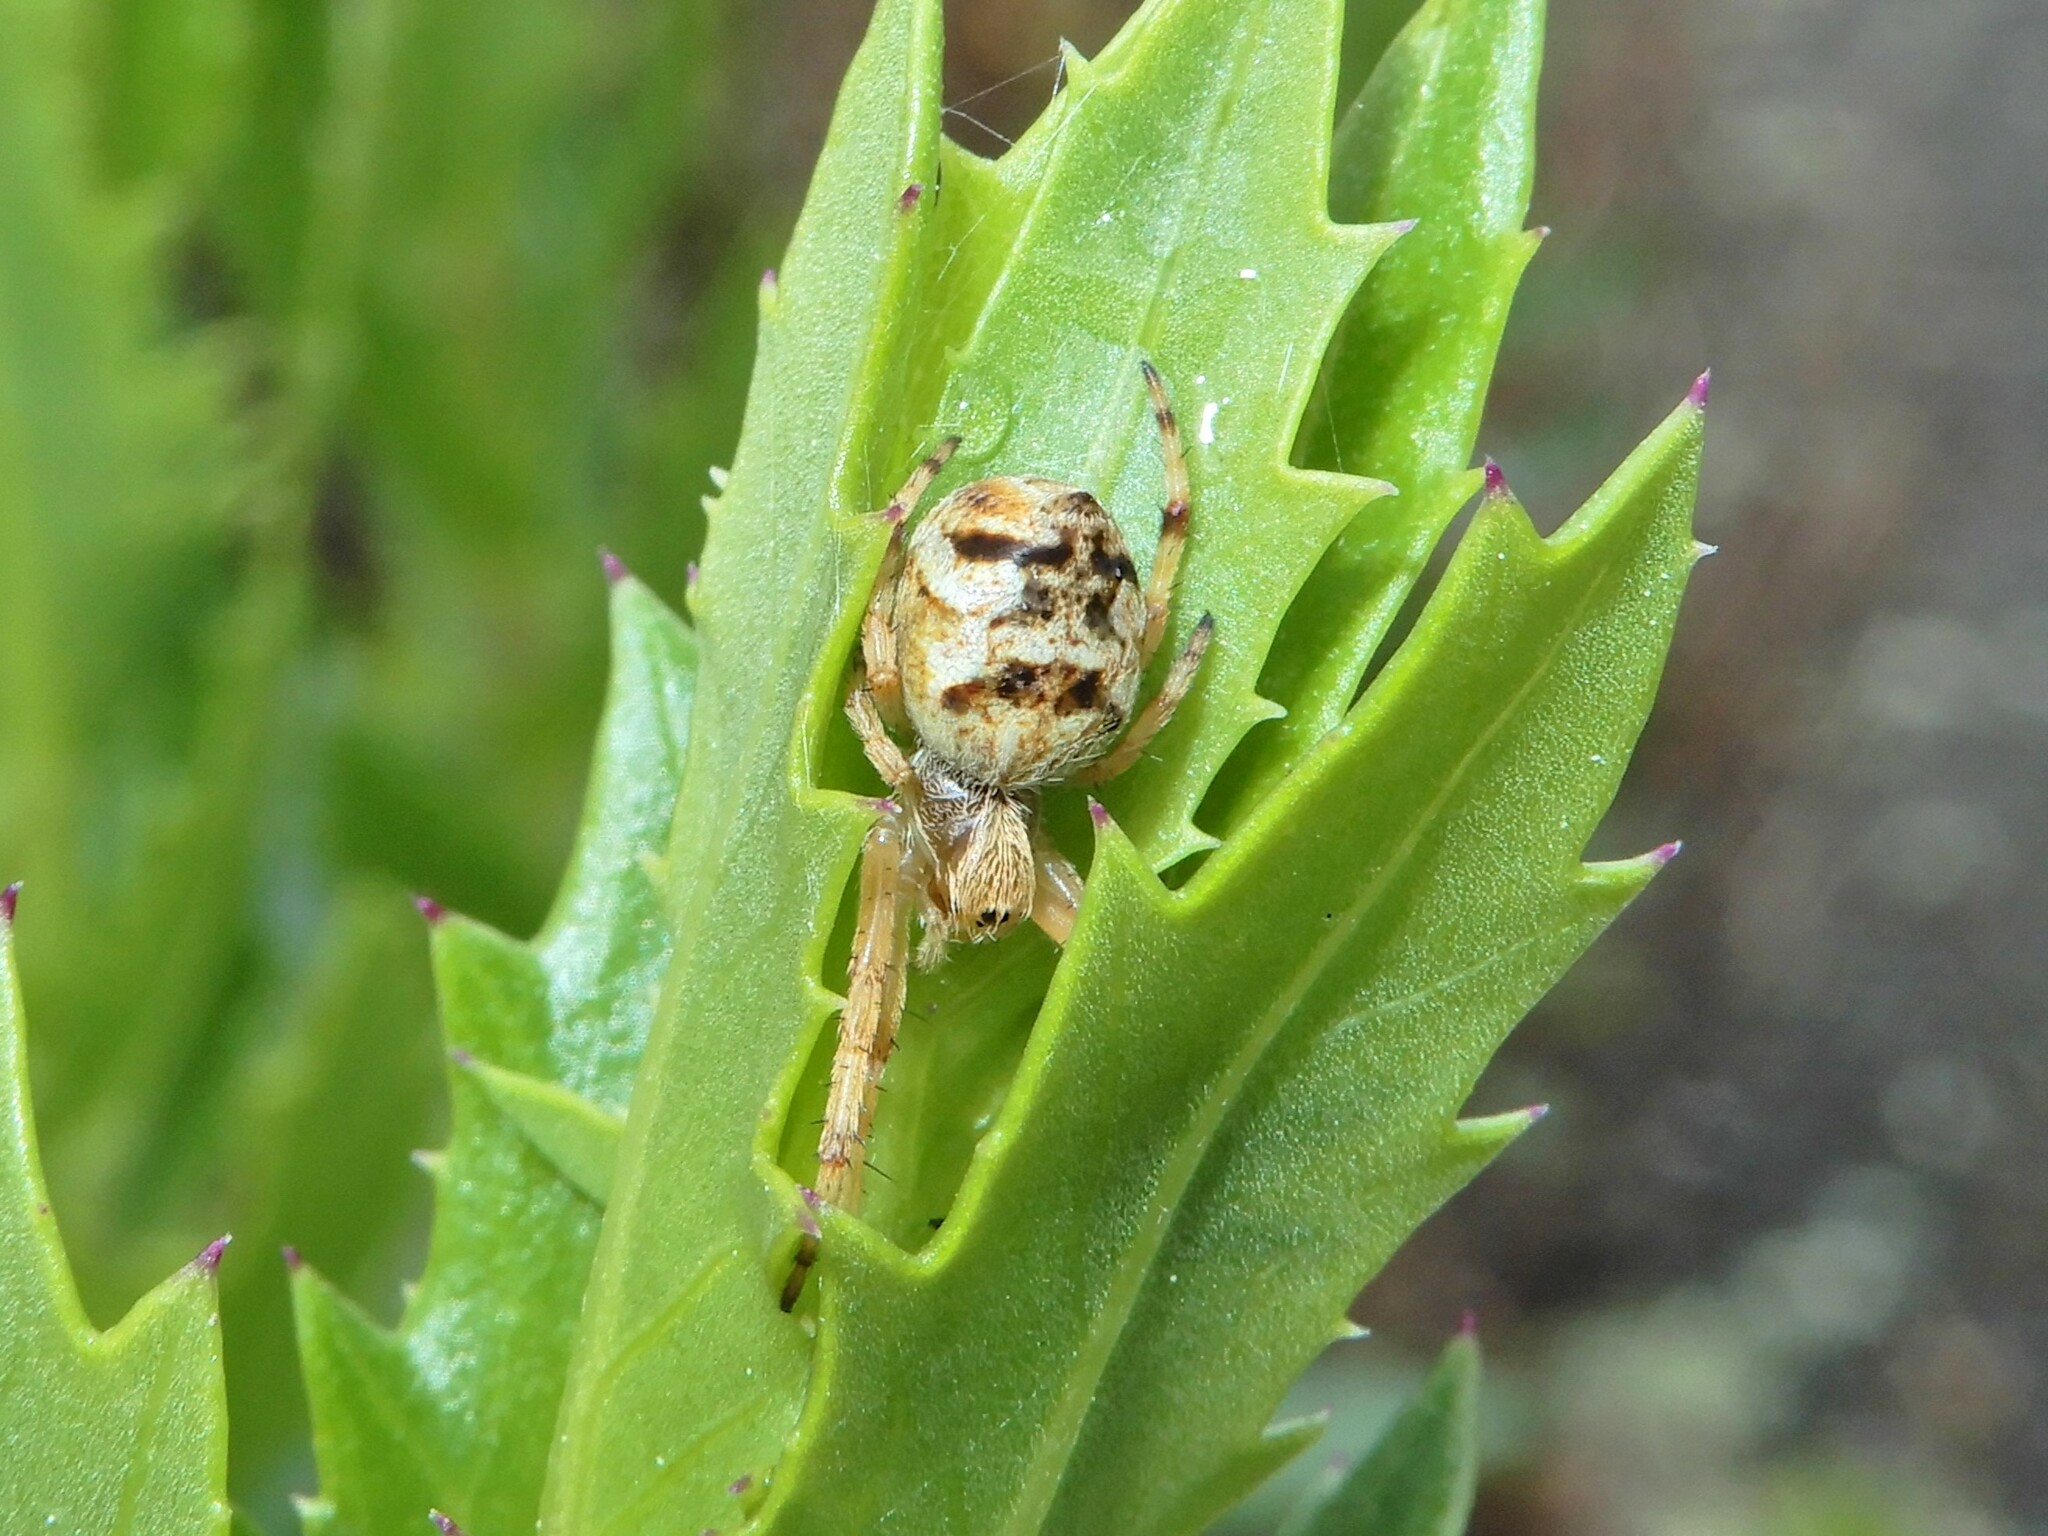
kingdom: Animalia
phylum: Arthropoda
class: Arachnida
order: Araneae
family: Araneidae
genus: Salsa
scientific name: Salsa fuliginata
